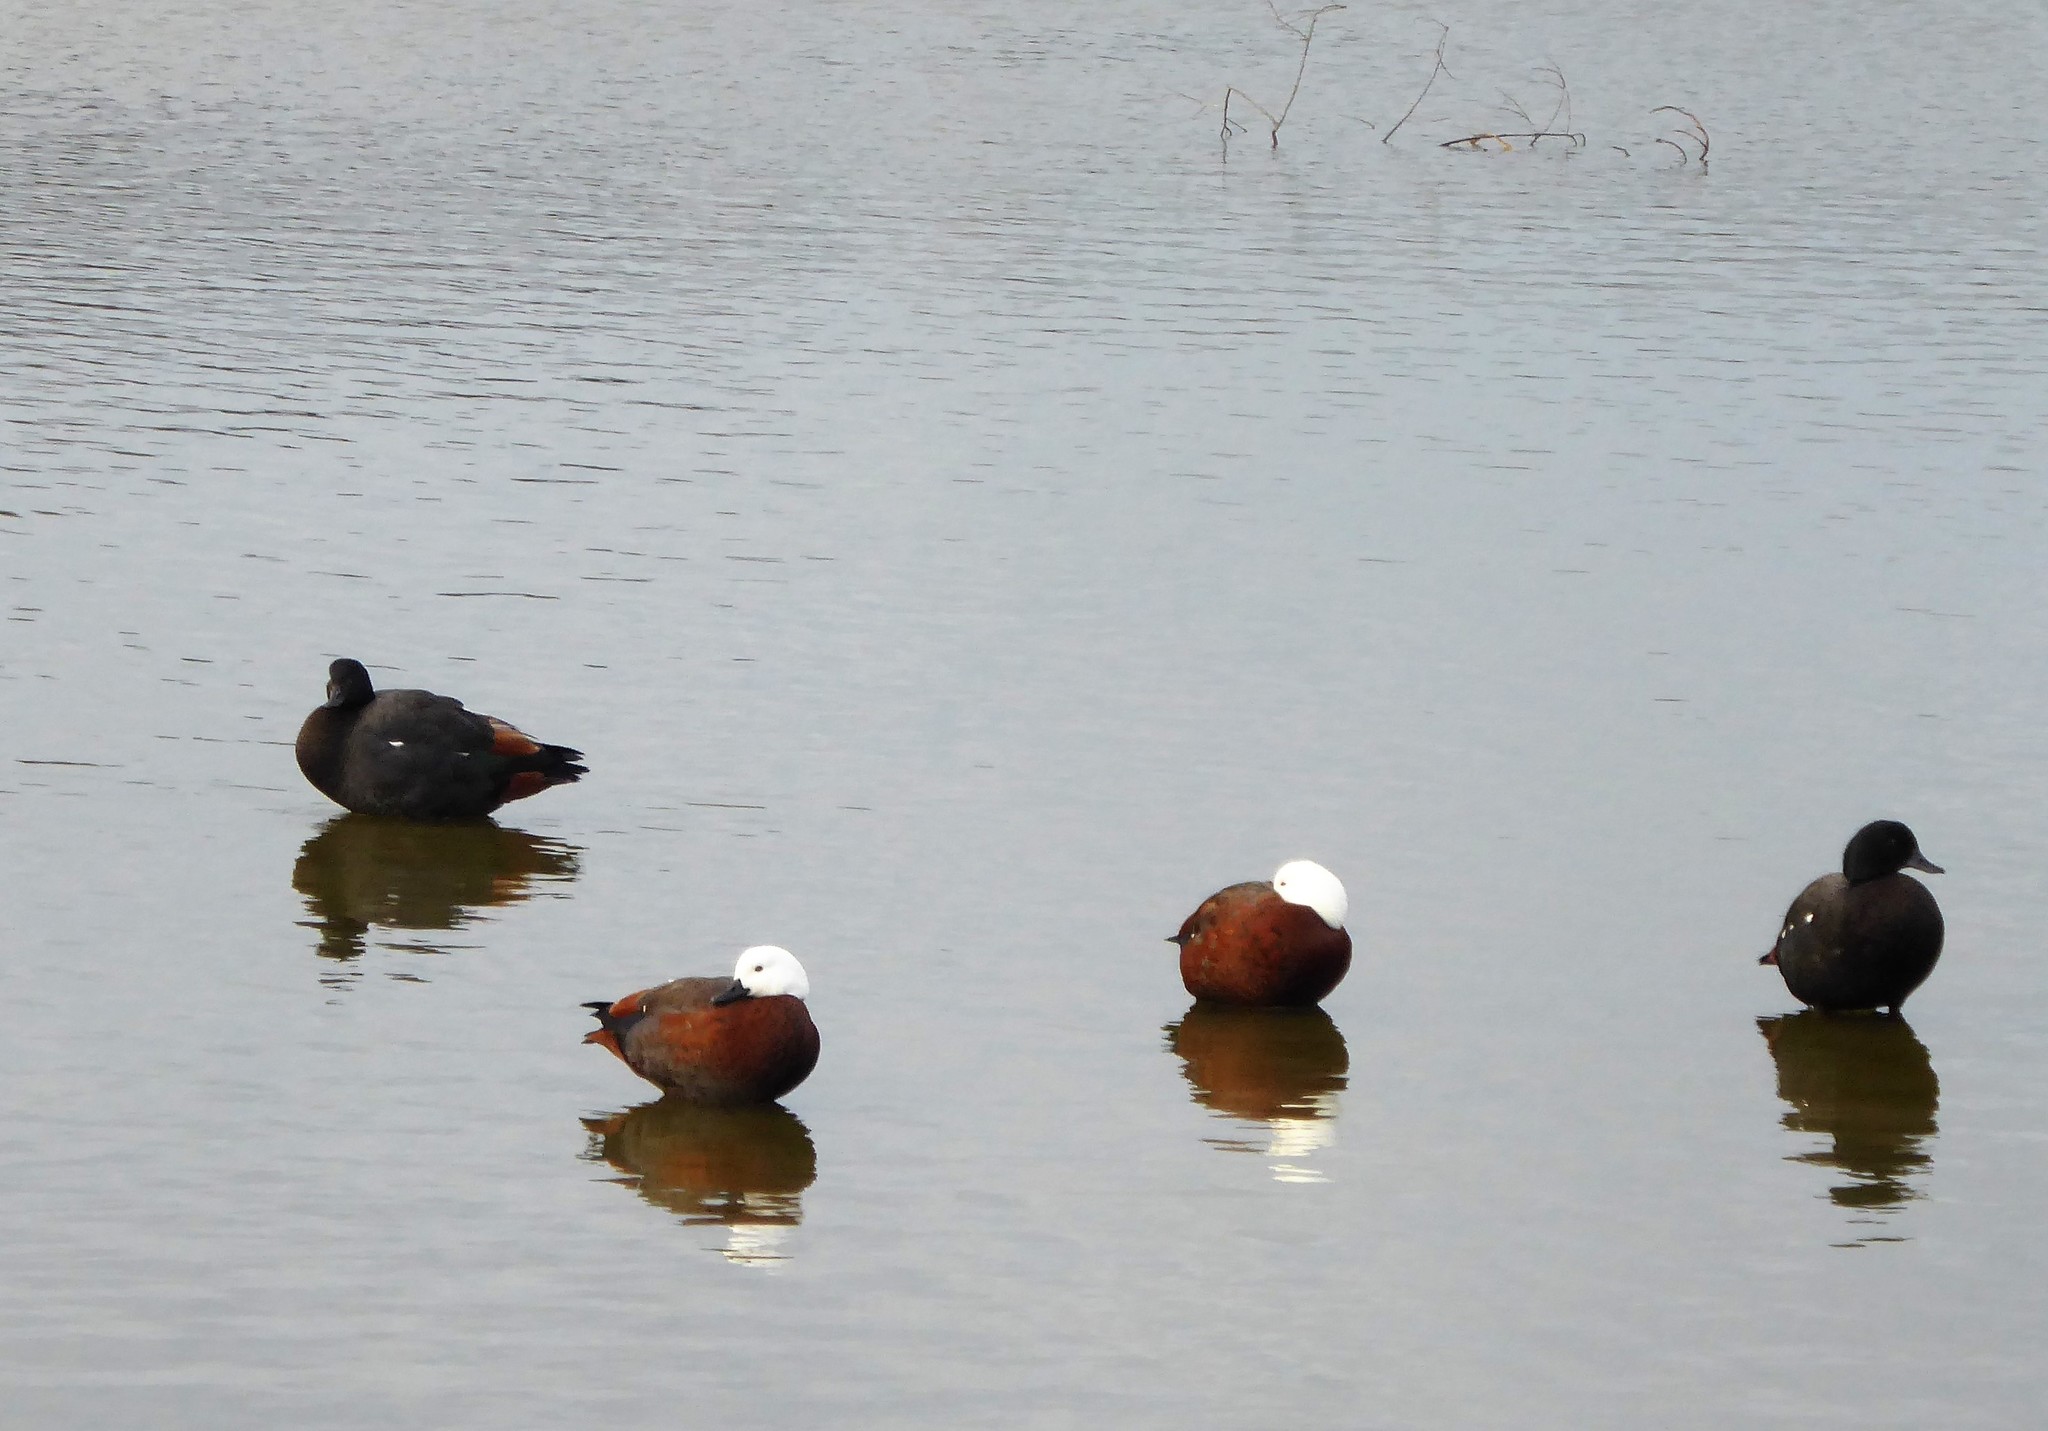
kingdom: Animalia
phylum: Chordata
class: Aves
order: Anseriformes
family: Anatidae
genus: Tadorna
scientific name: Tadorna variegata
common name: Paradise shelduck
